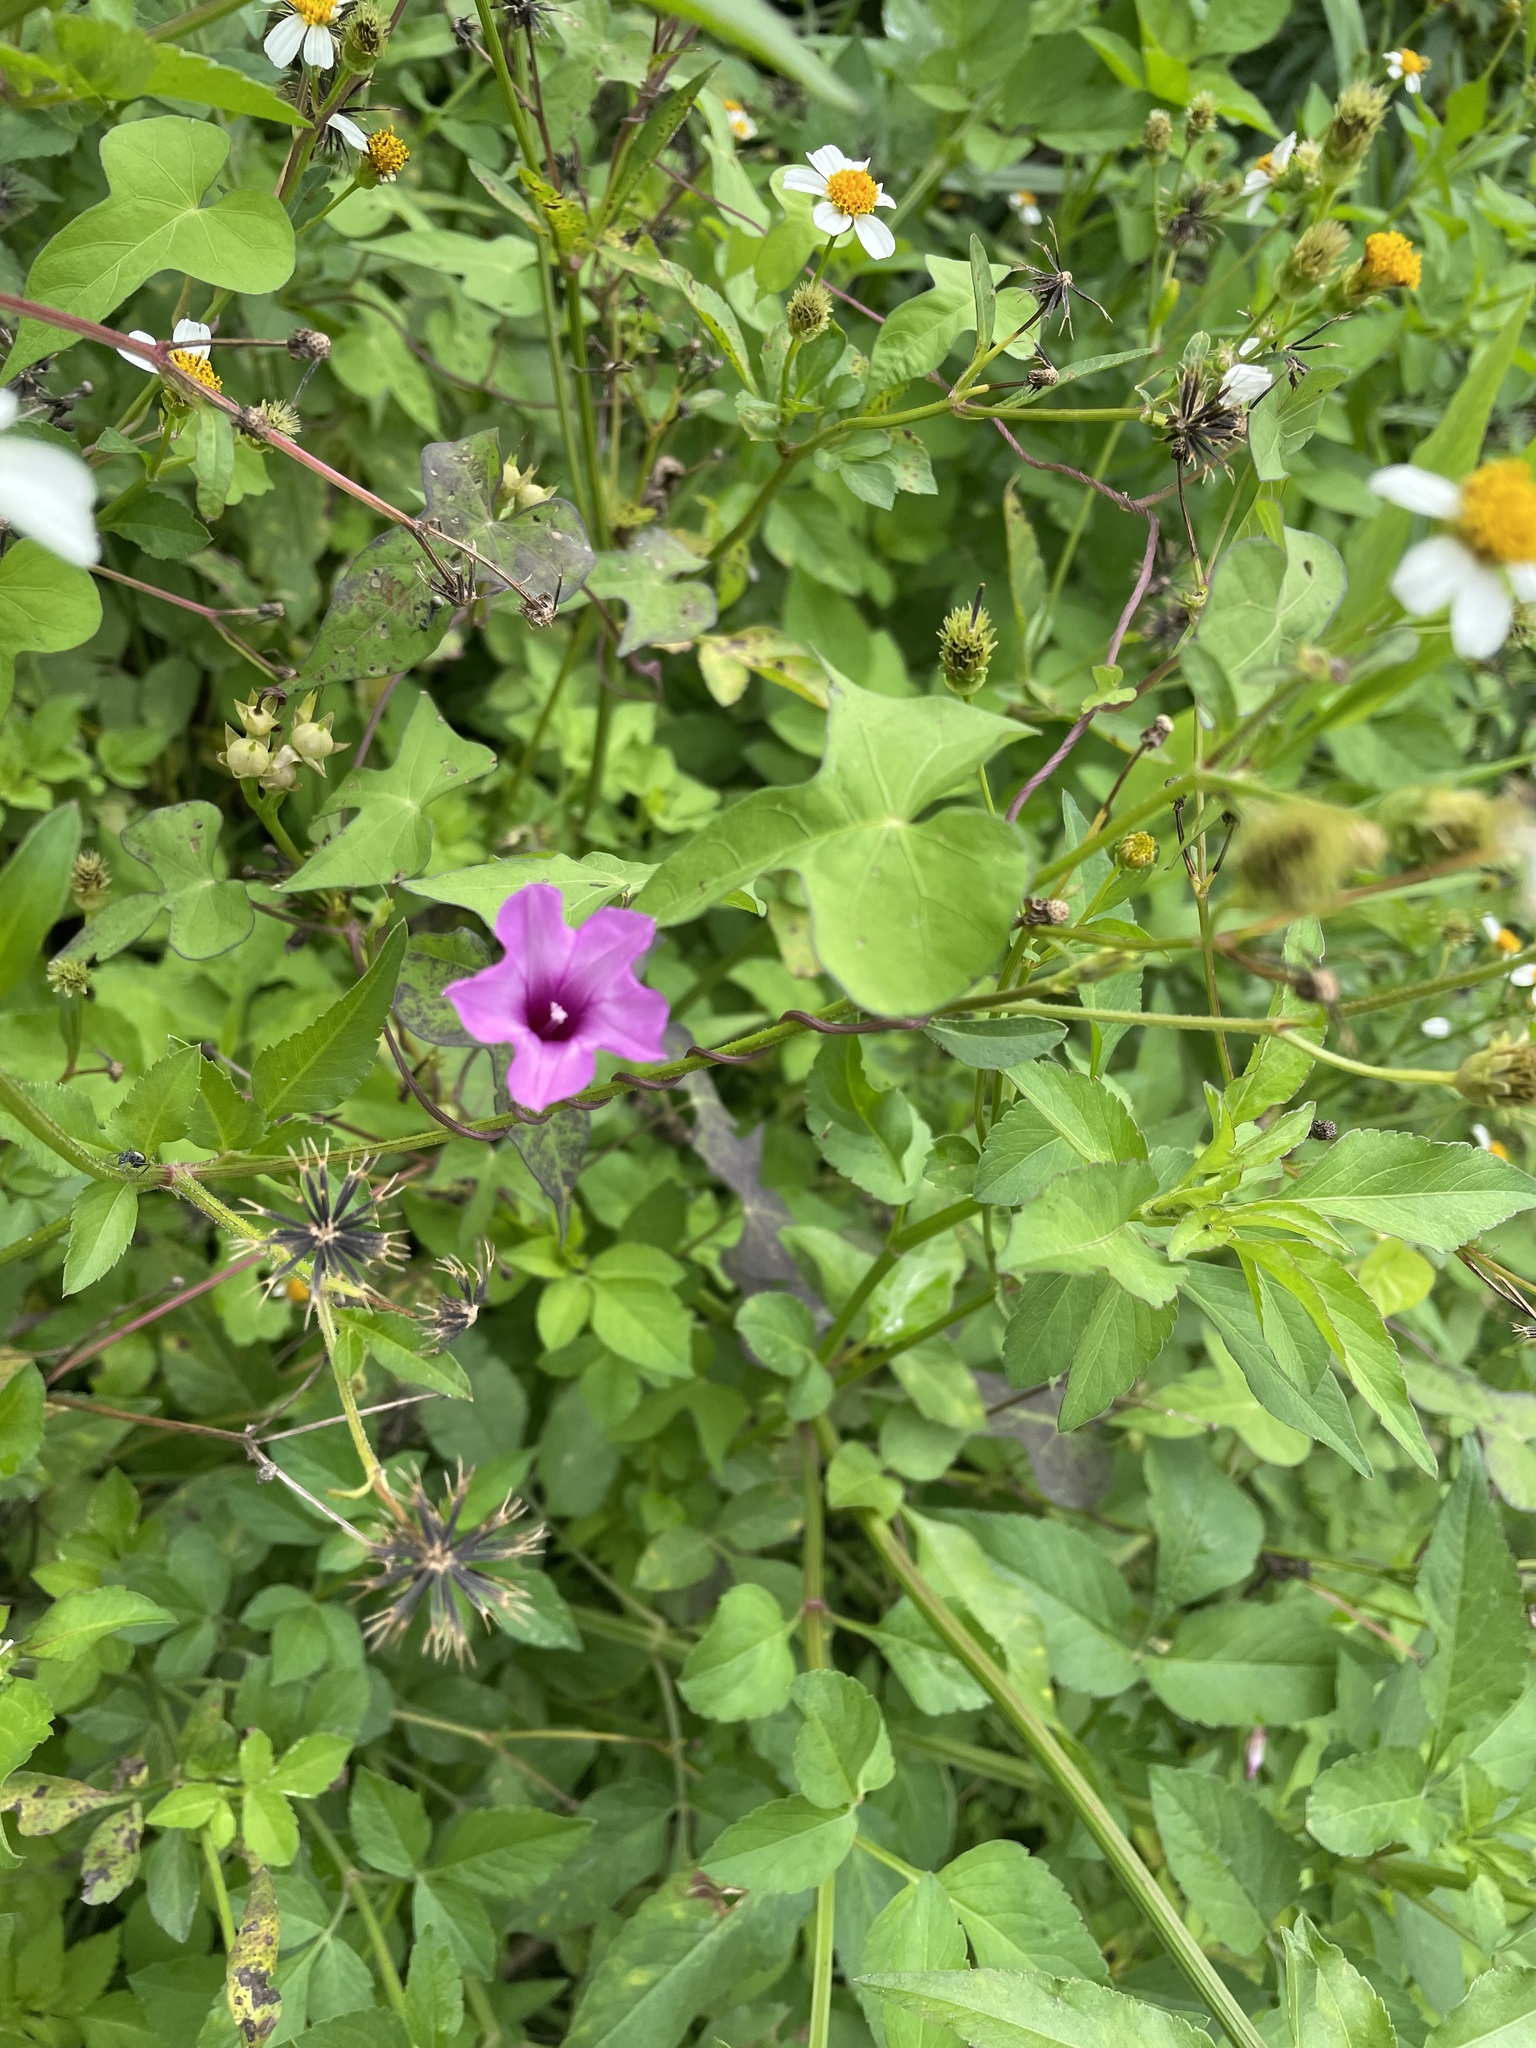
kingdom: Plantae
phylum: Tracheophyta
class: Magnoliopsida
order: Solanales
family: Convolvulaceae
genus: Ipomoea
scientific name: Ipomoea triloba
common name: Little-bell
